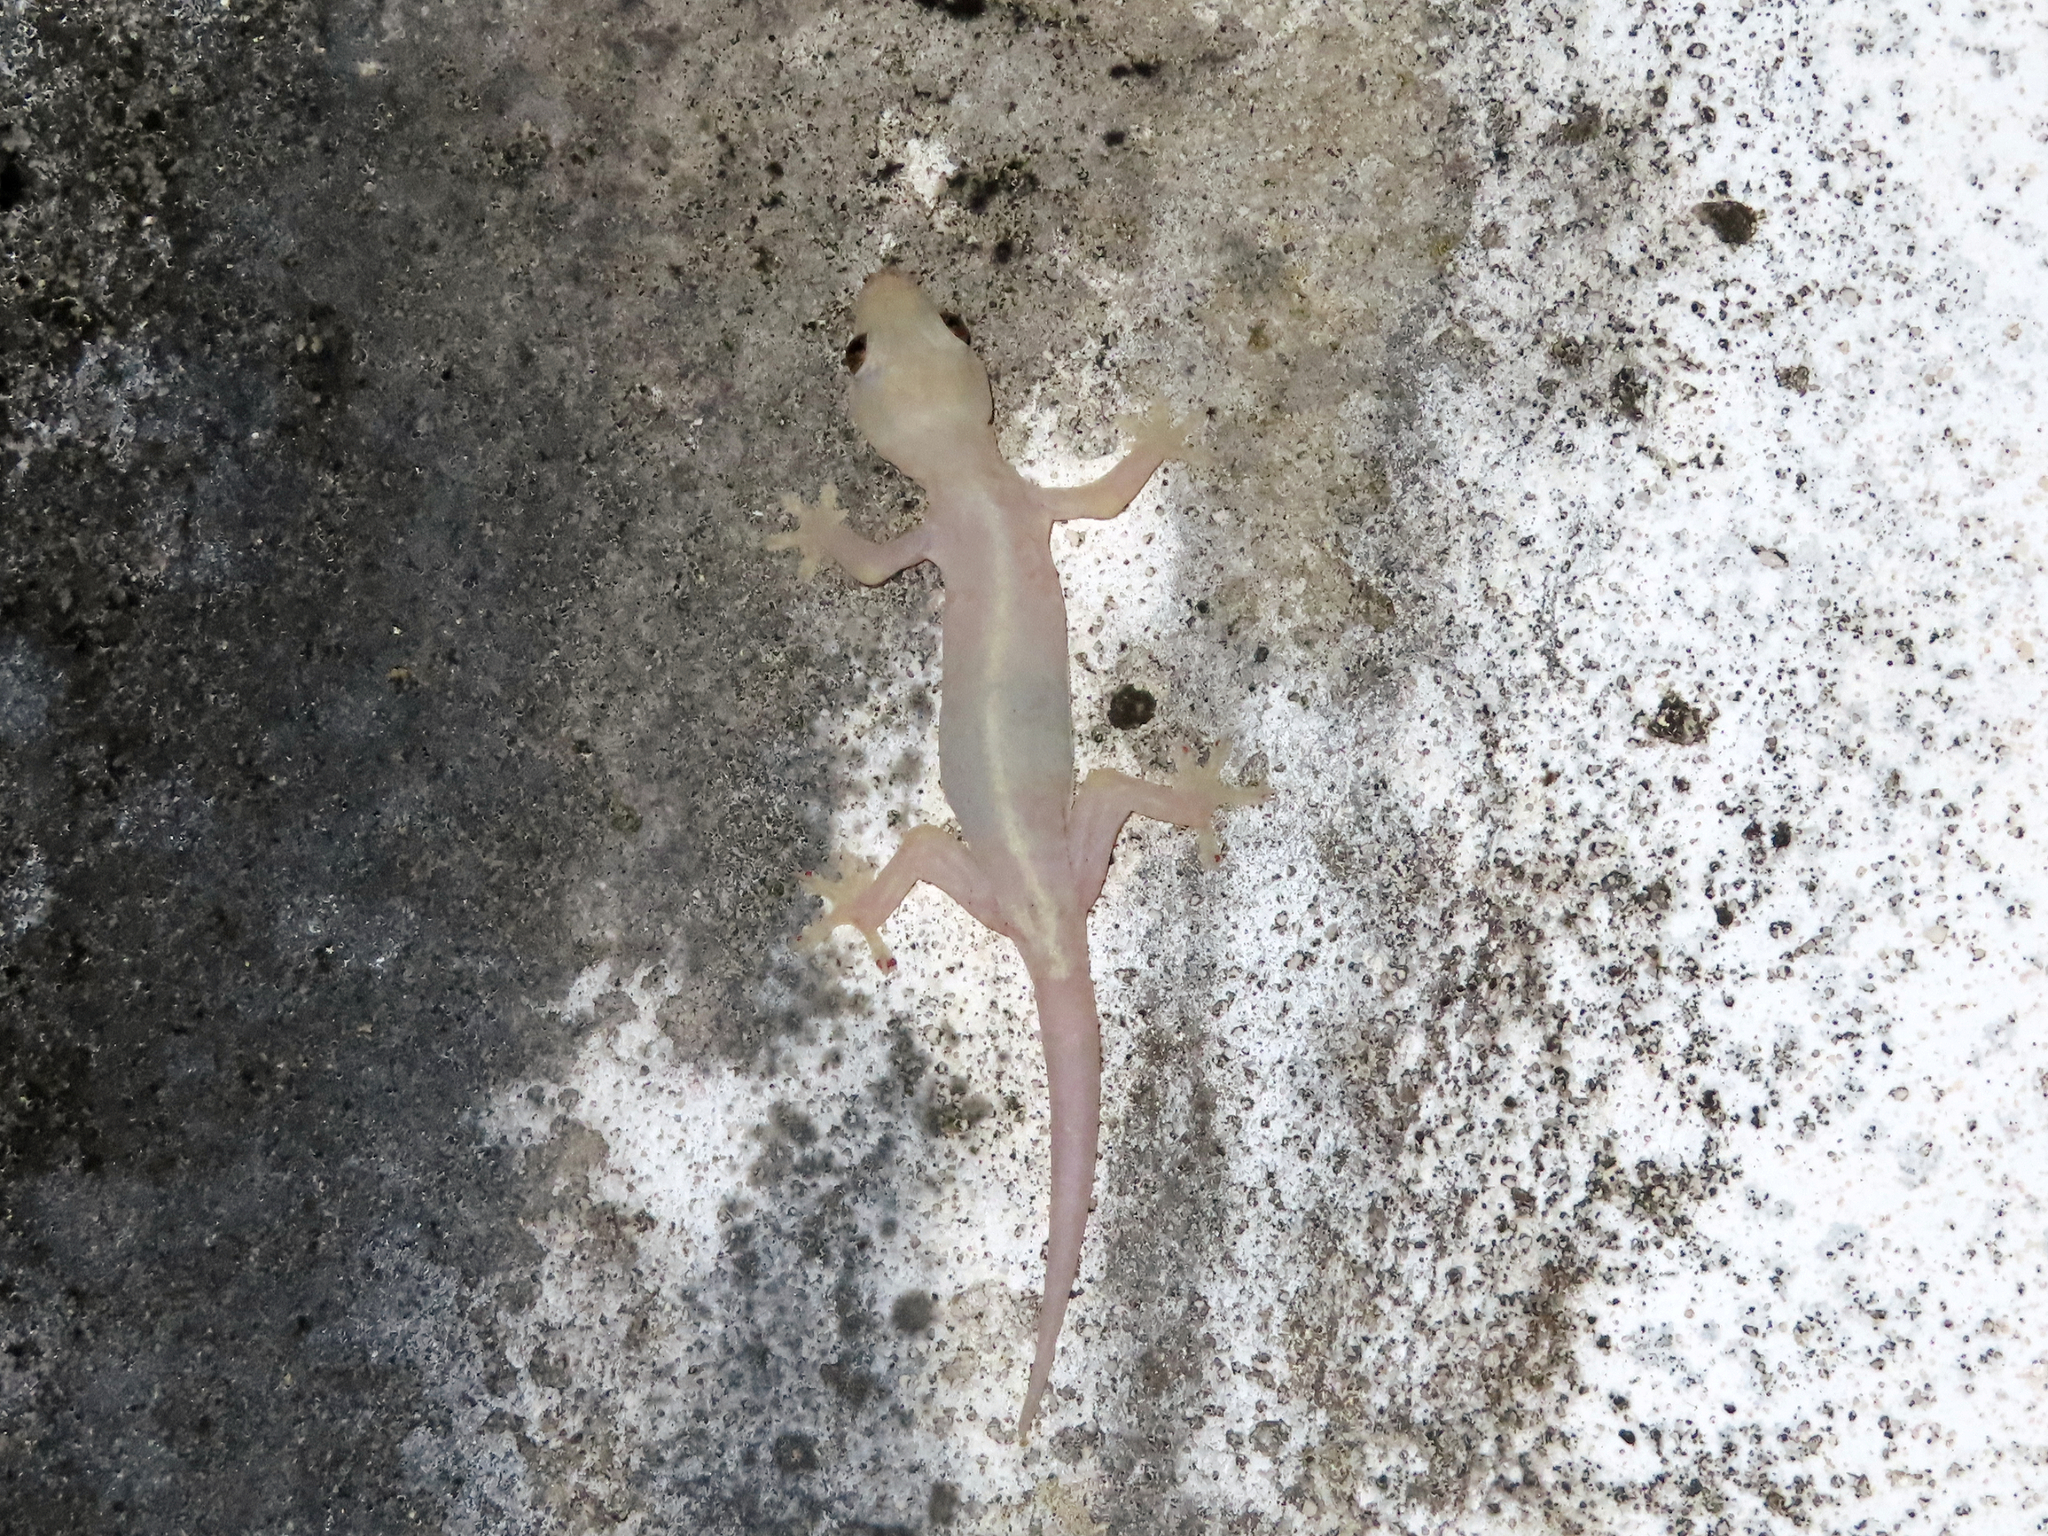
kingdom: Animalia
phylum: Chordata
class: Squamata
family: Gekkonidae
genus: Hemidactylus
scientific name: Hemidactylus frenatus
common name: Common house gecko
